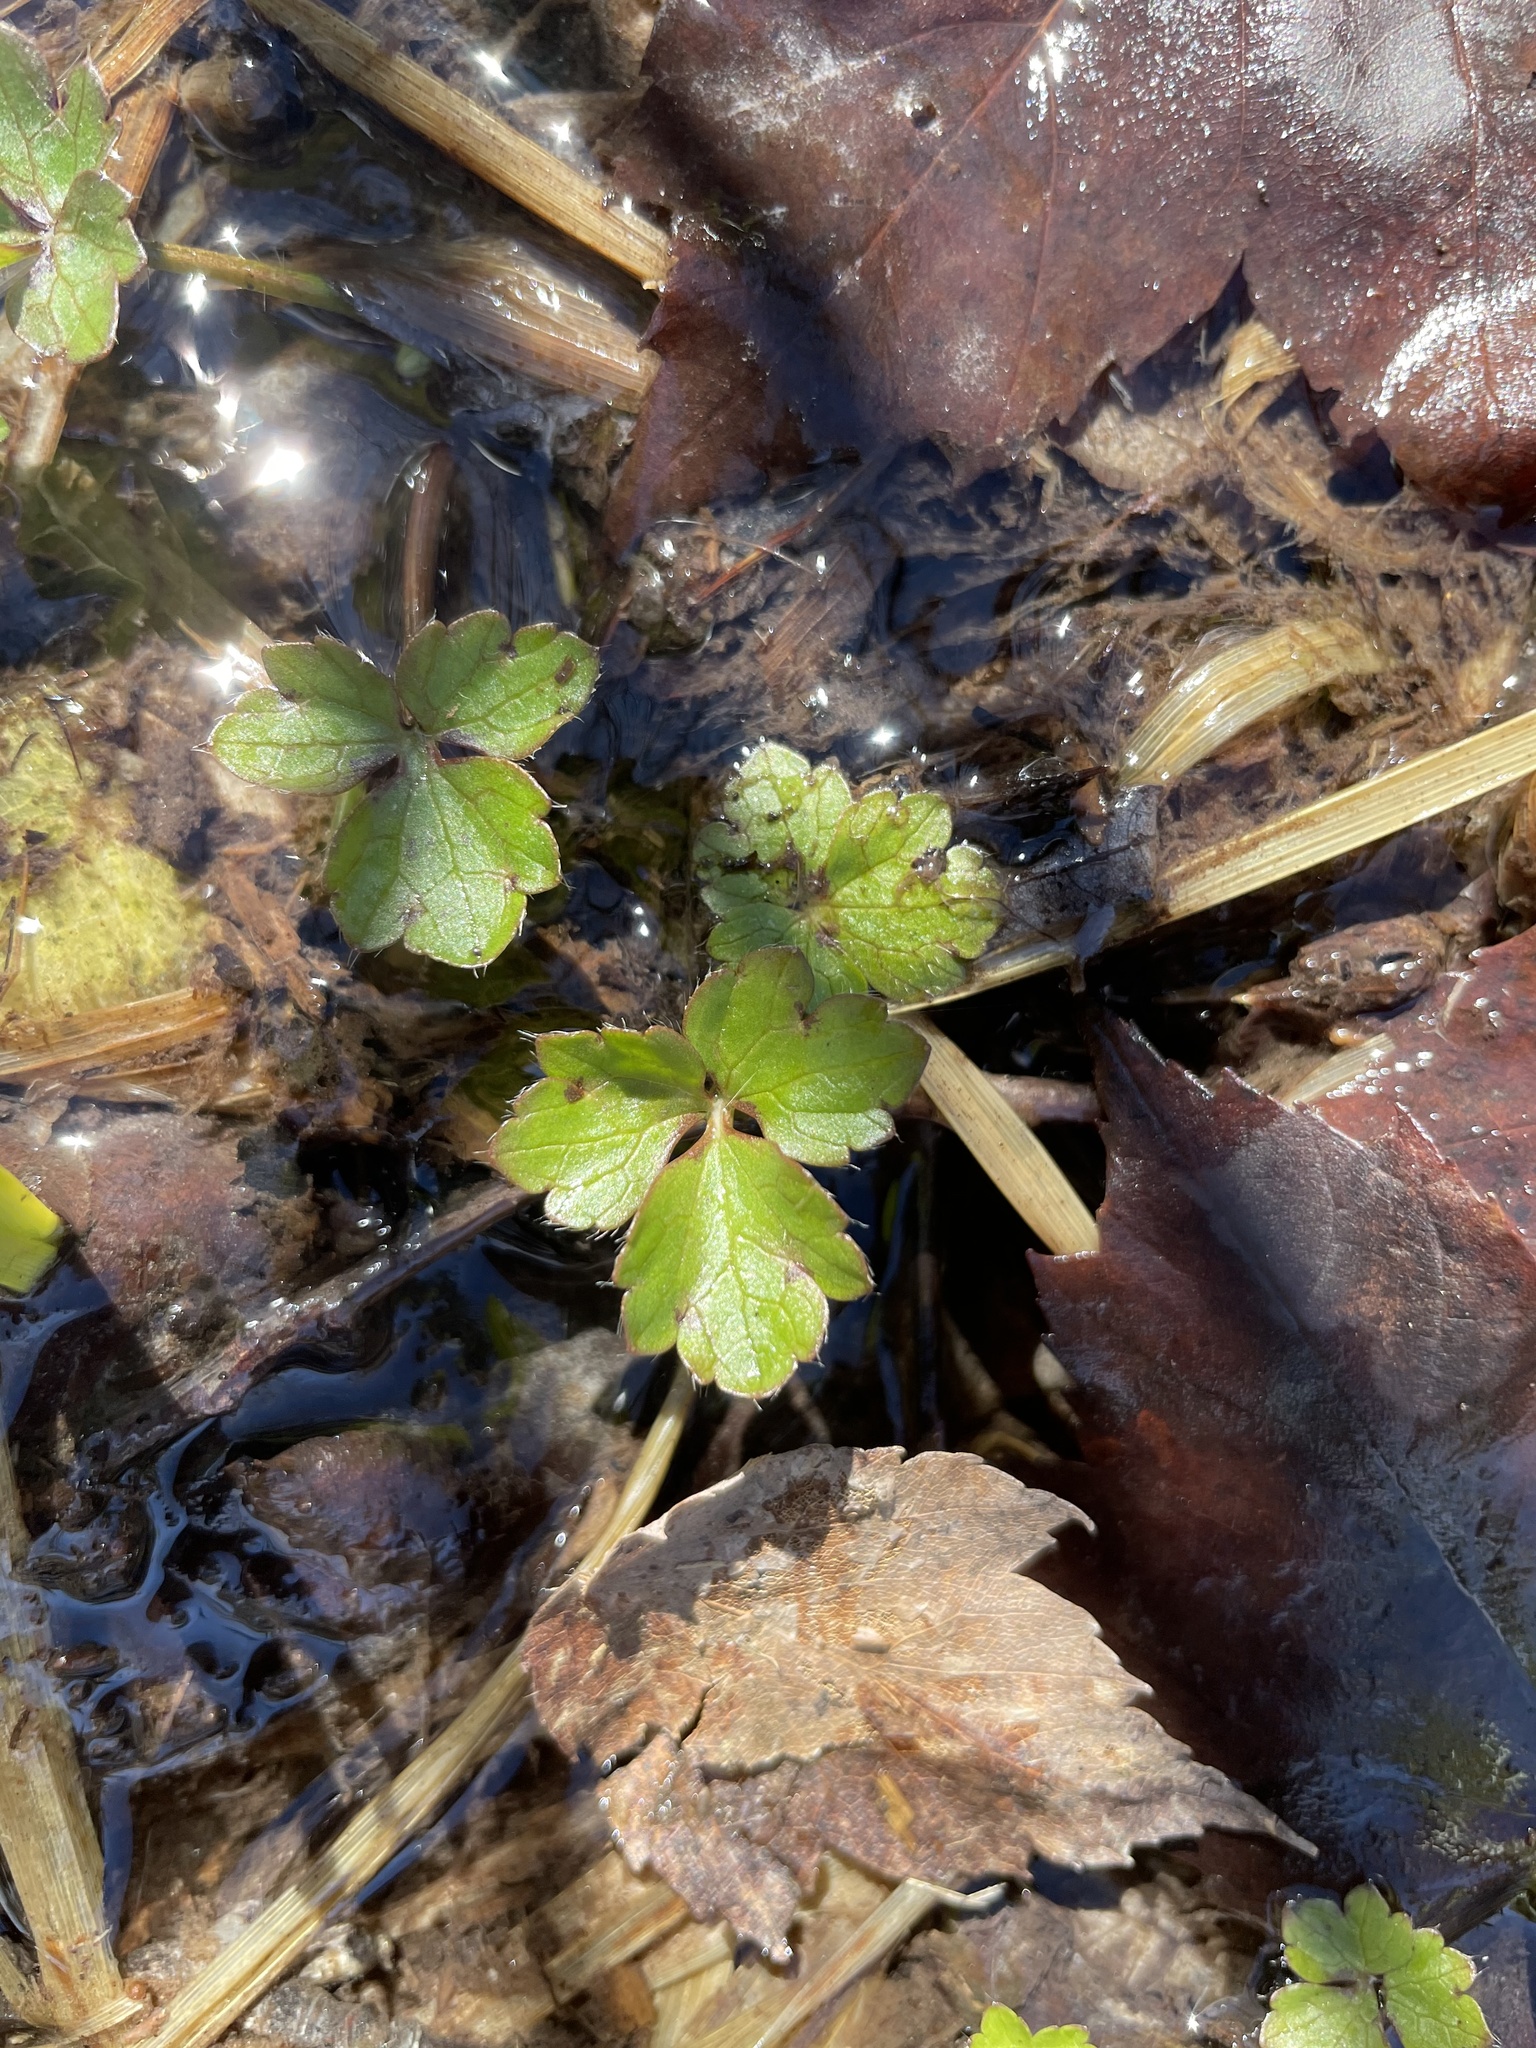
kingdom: Plantae
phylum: Tracheophyta
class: Magnoliopsida
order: Ranunculales
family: Ranunculaceae
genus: Ranunculus
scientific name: Ranunculus repens
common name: Creeping buttercup
